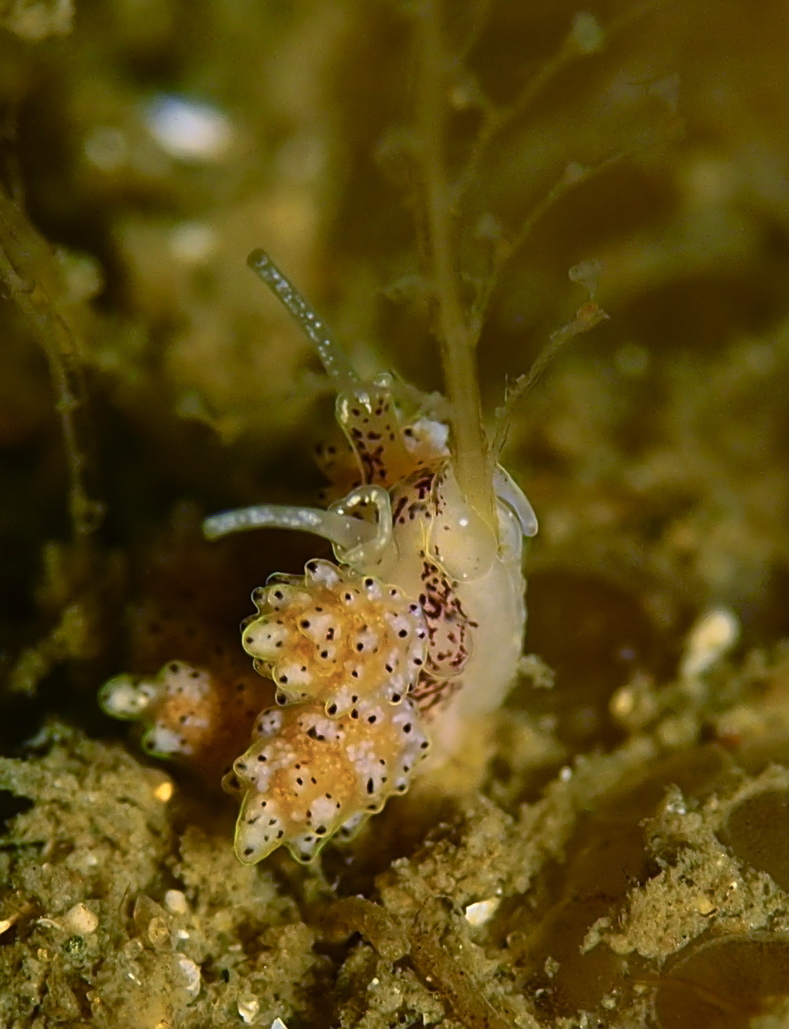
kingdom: Animalia
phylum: Mollusca
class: Gastropoda
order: Nudibranchia
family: Dotidae
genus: Doto
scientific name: Doto dunnei
